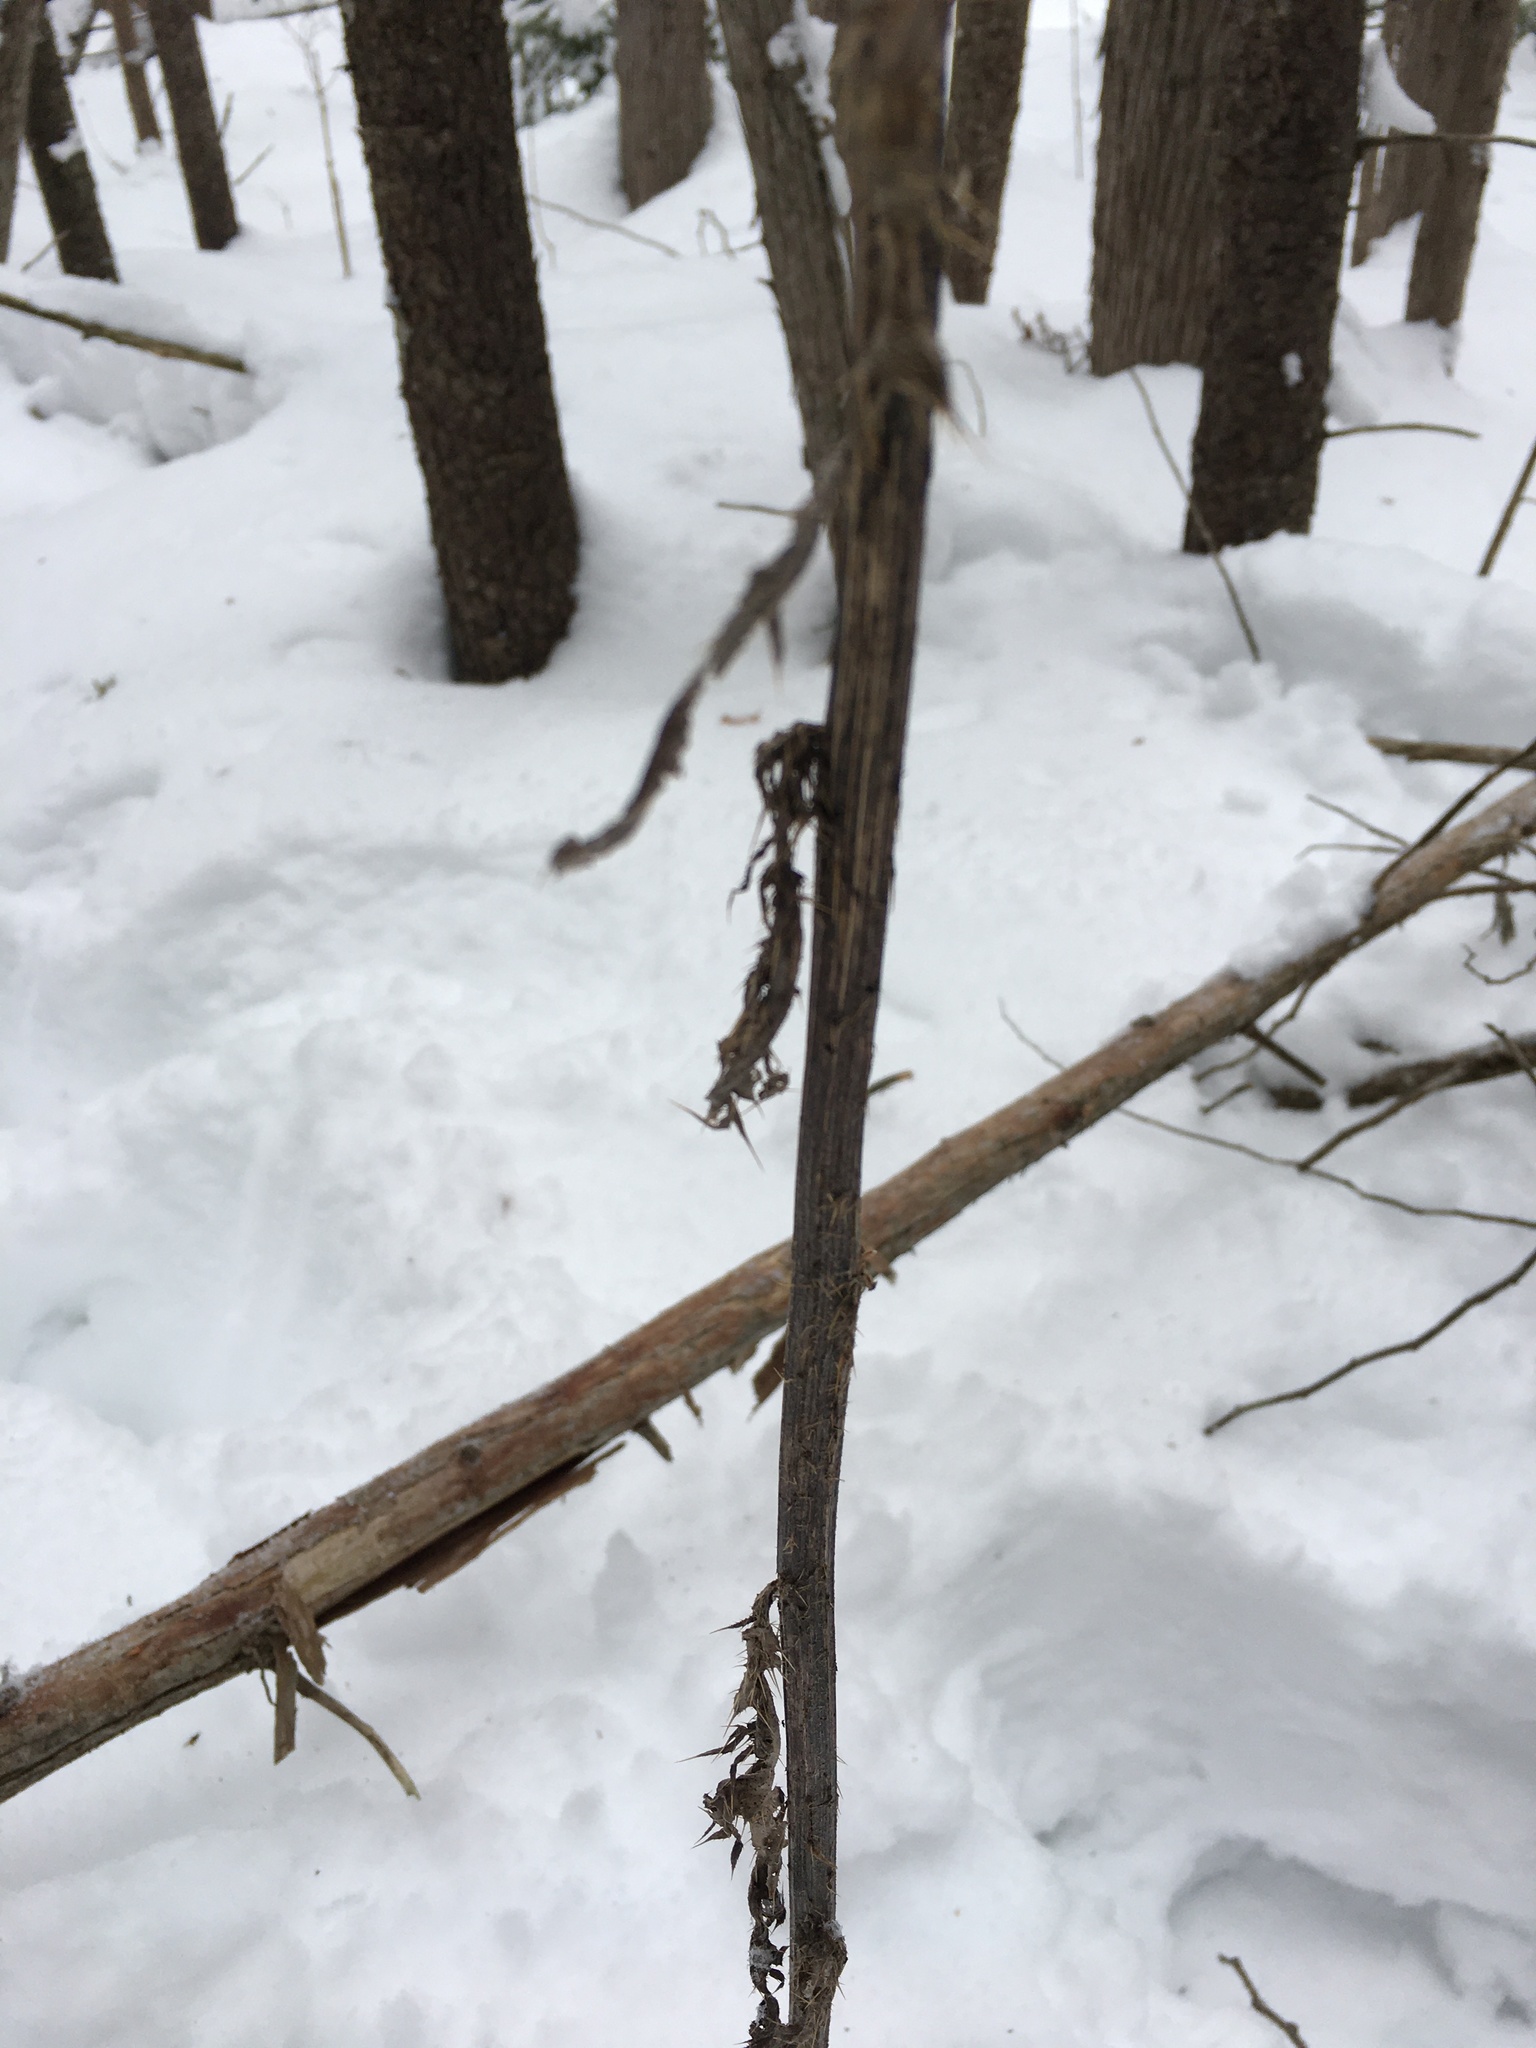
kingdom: Plantae
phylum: Tracheophyta
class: Magnoliopsida
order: Asterales
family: Asteraceae
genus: Cirsium
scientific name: Cirsium palustre
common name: Marsh thistle
